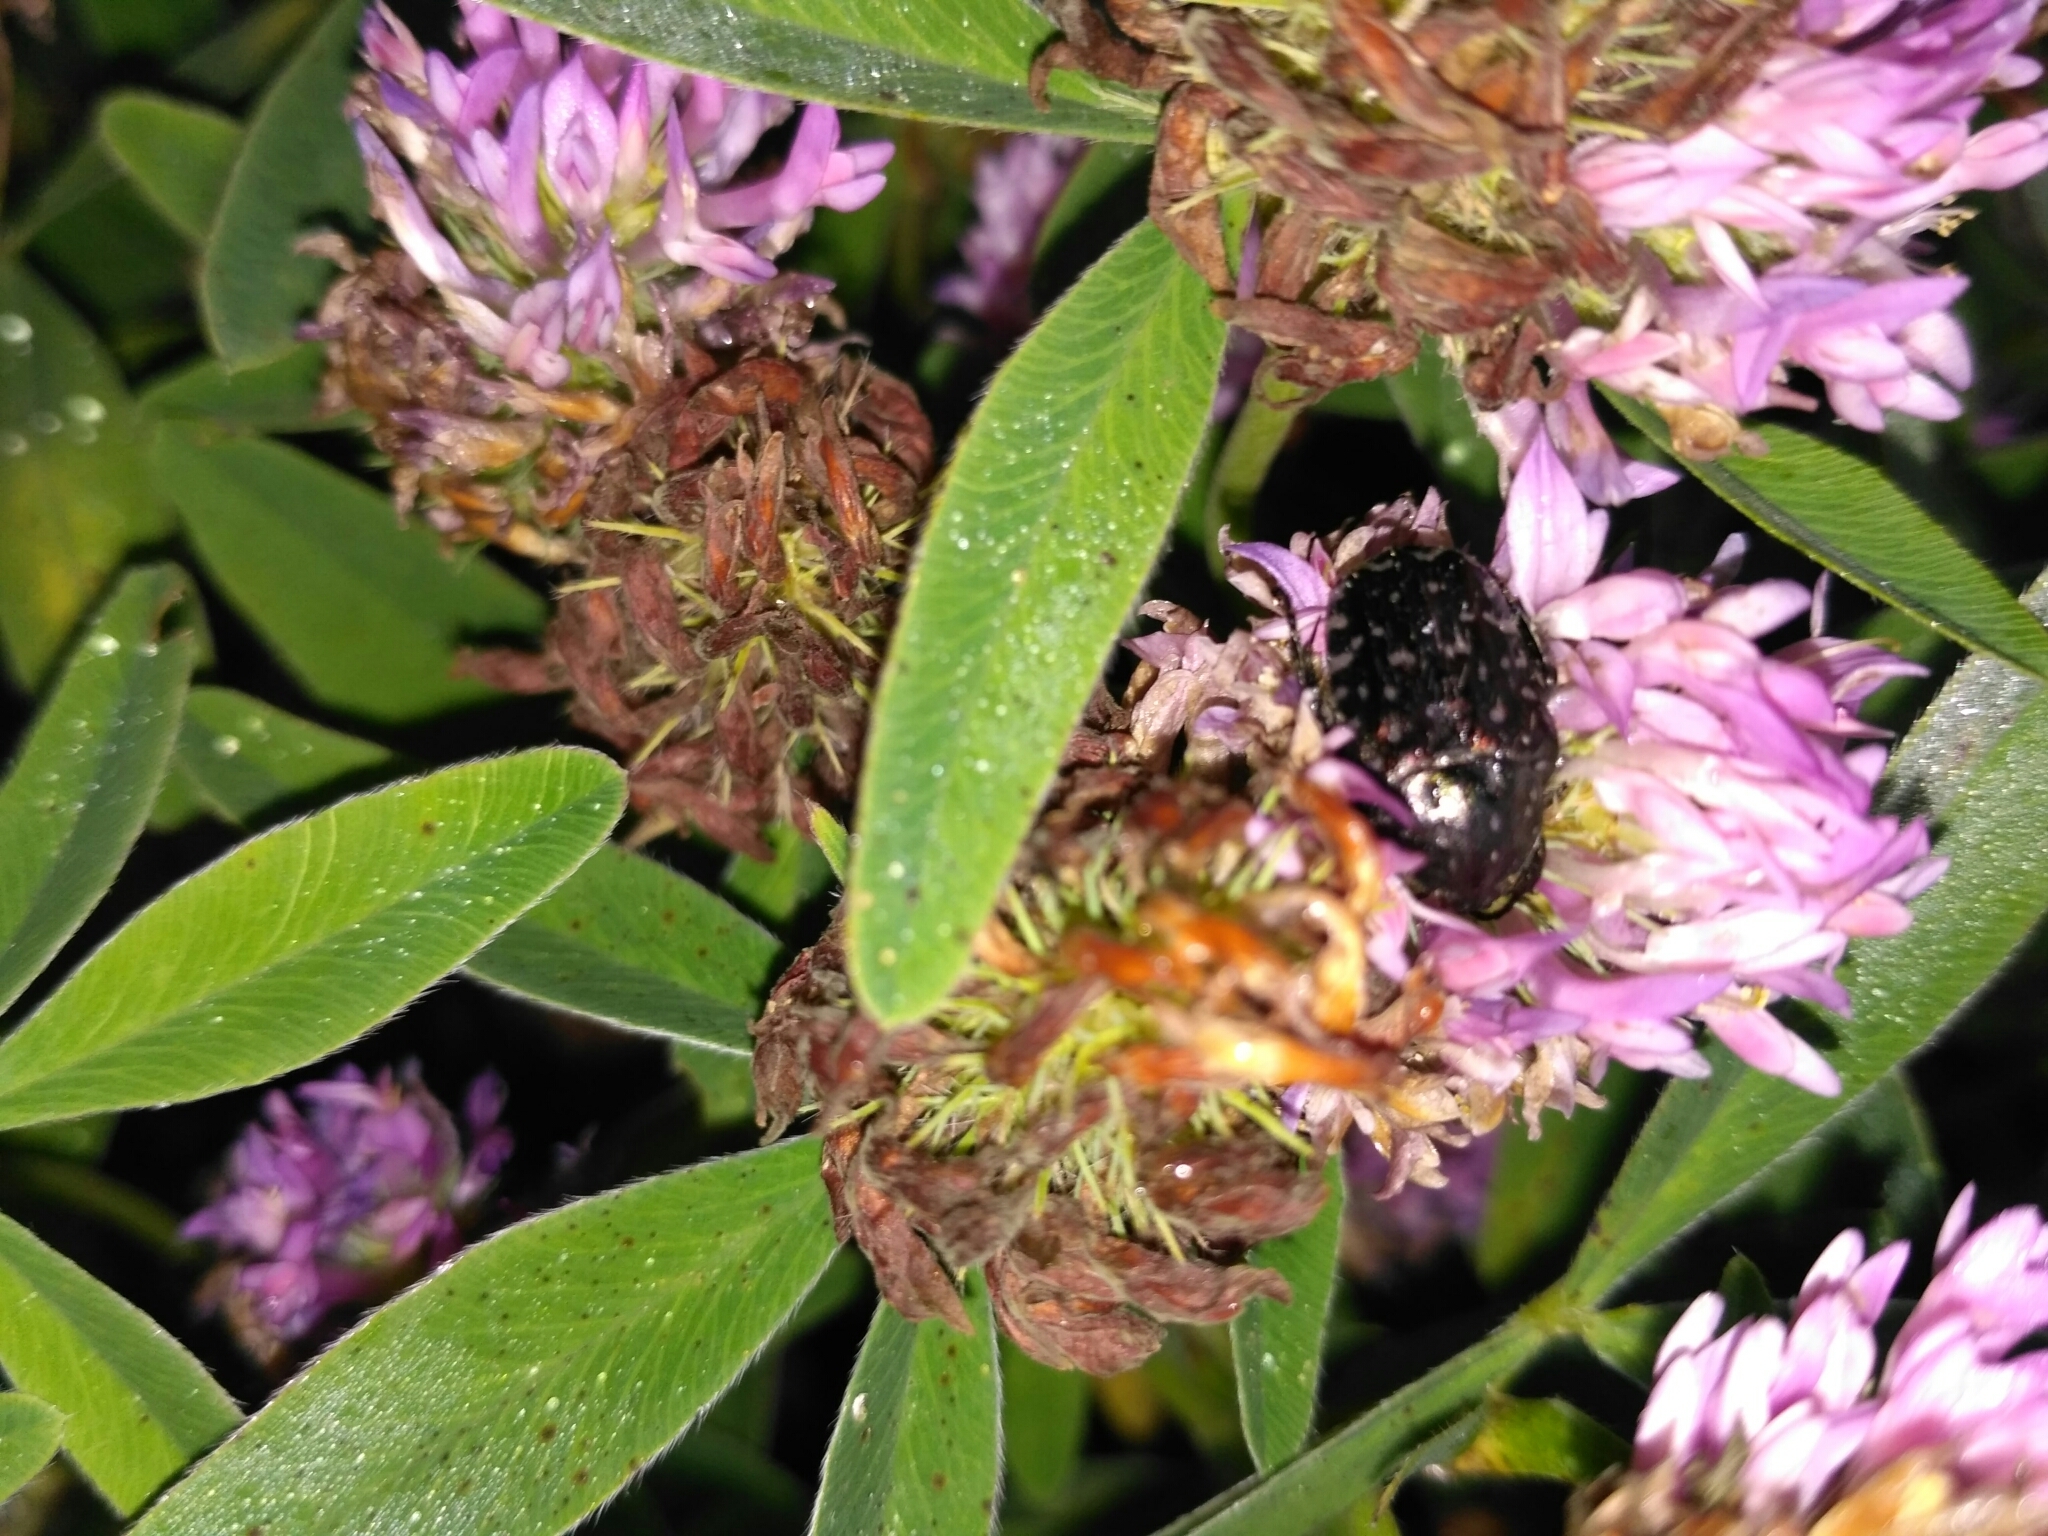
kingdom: Animalia
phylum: Arthropoda
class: Insecta
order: Coleoptera
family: Scarabaeidae
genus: Oxythyrea
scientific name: Oxythyrea funesta
